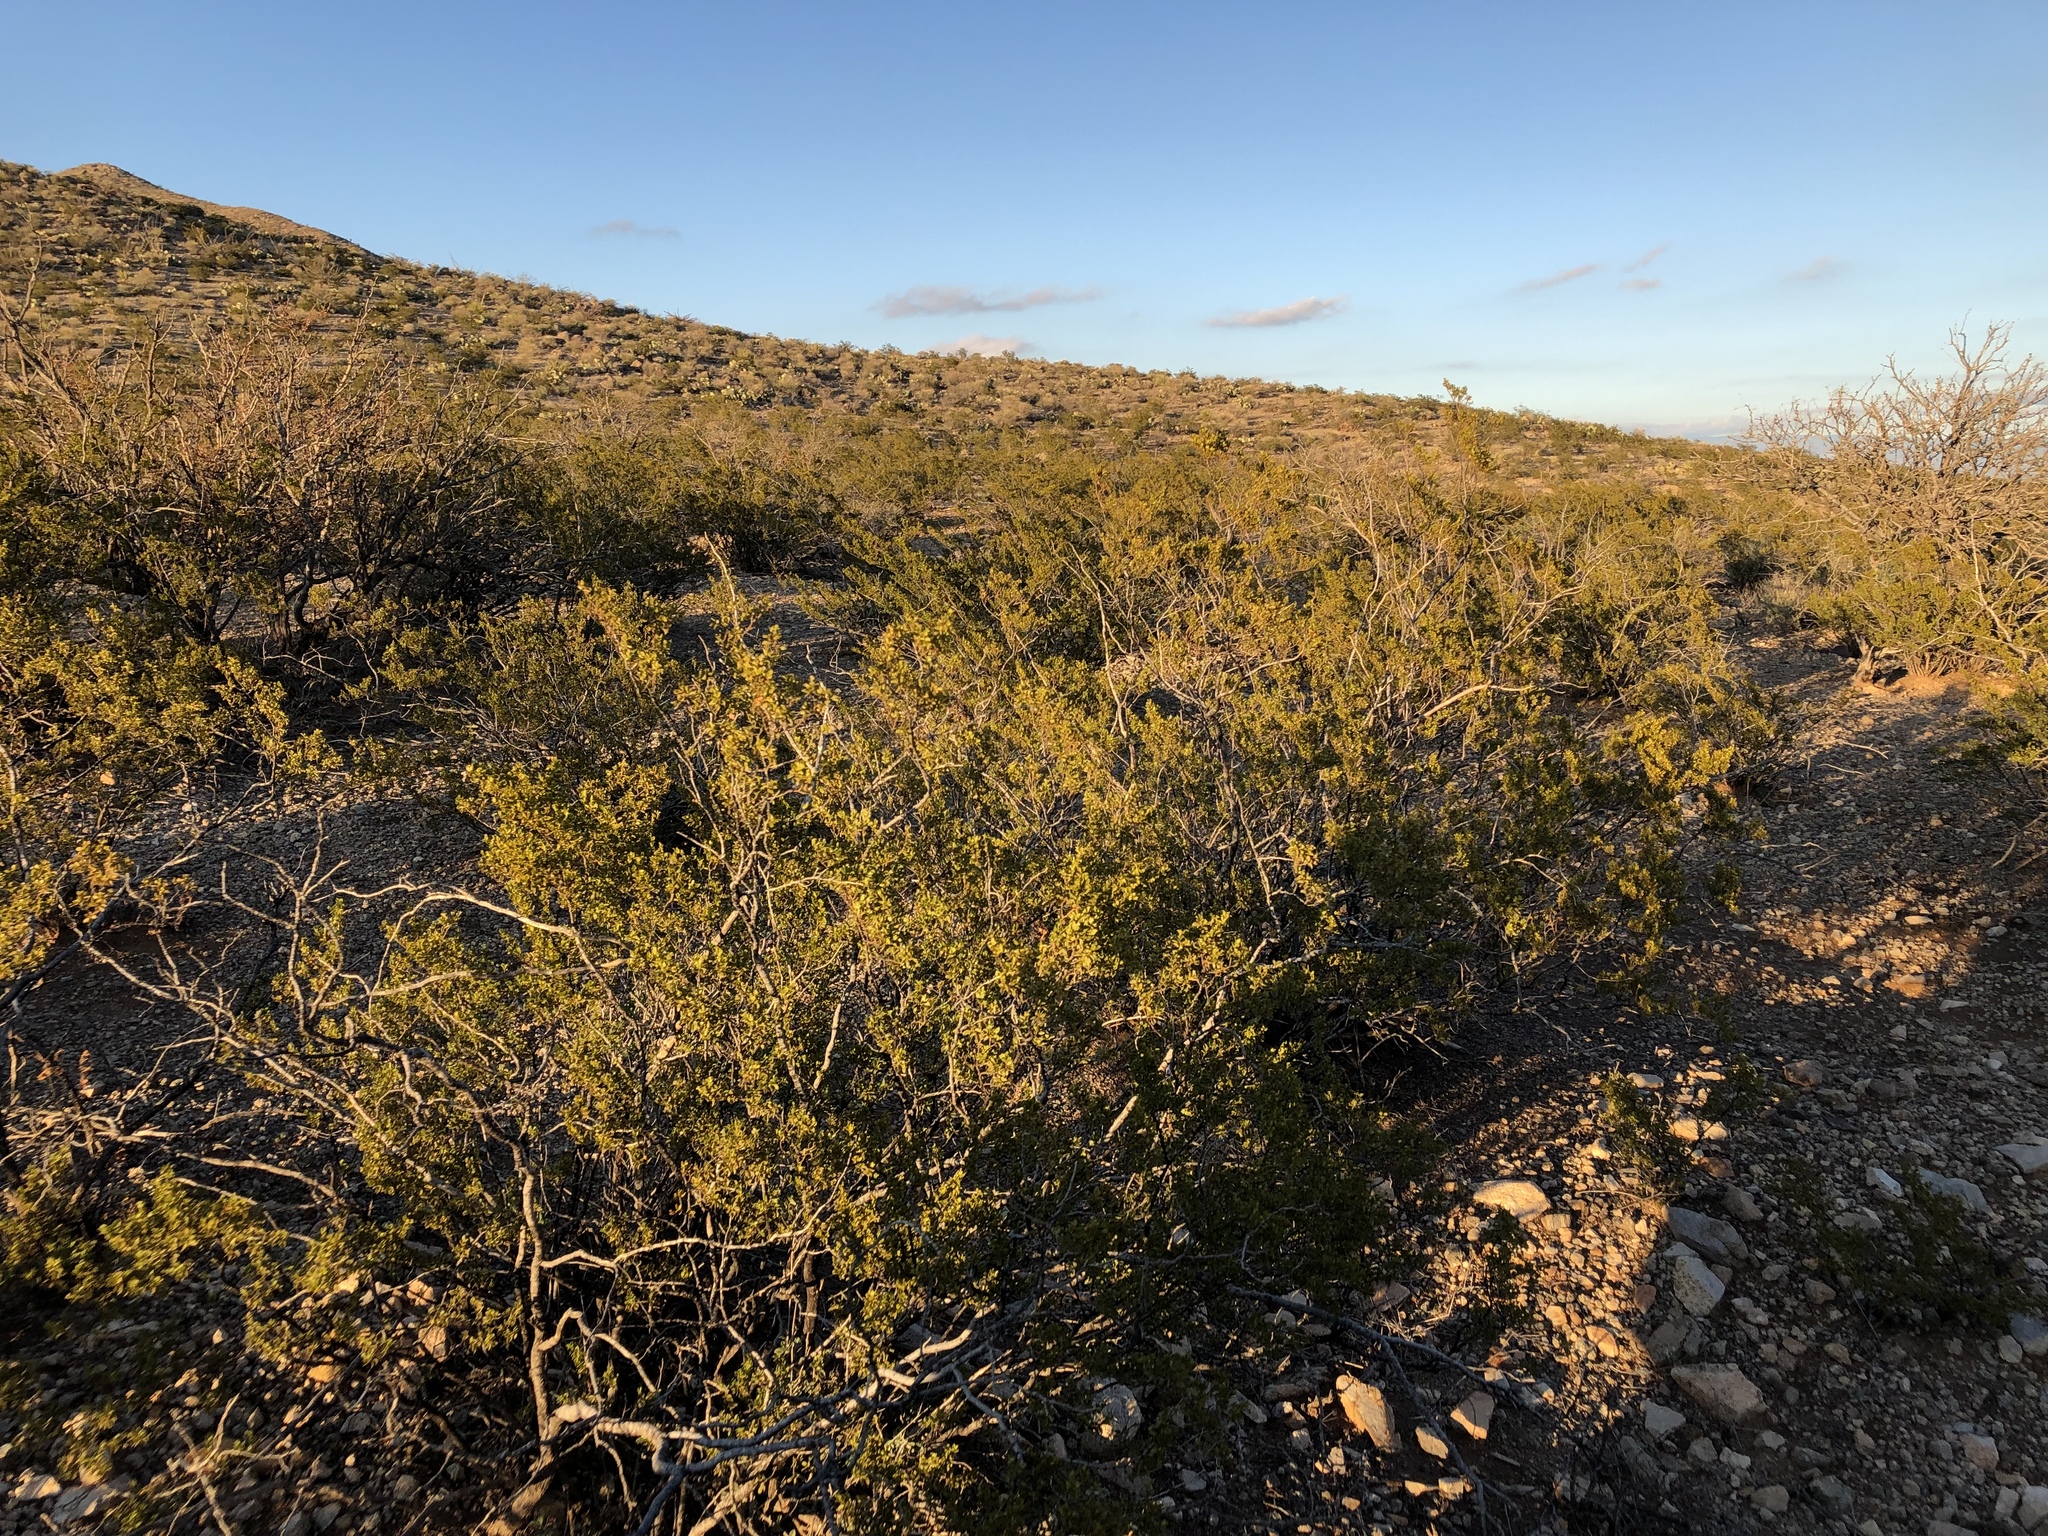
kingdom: Plantae
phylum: Tracheophyta
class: Magnoliopsida
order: Zygophyllales
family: Zygophyllaceae
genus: Larrea
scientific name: Larrea tridentata
